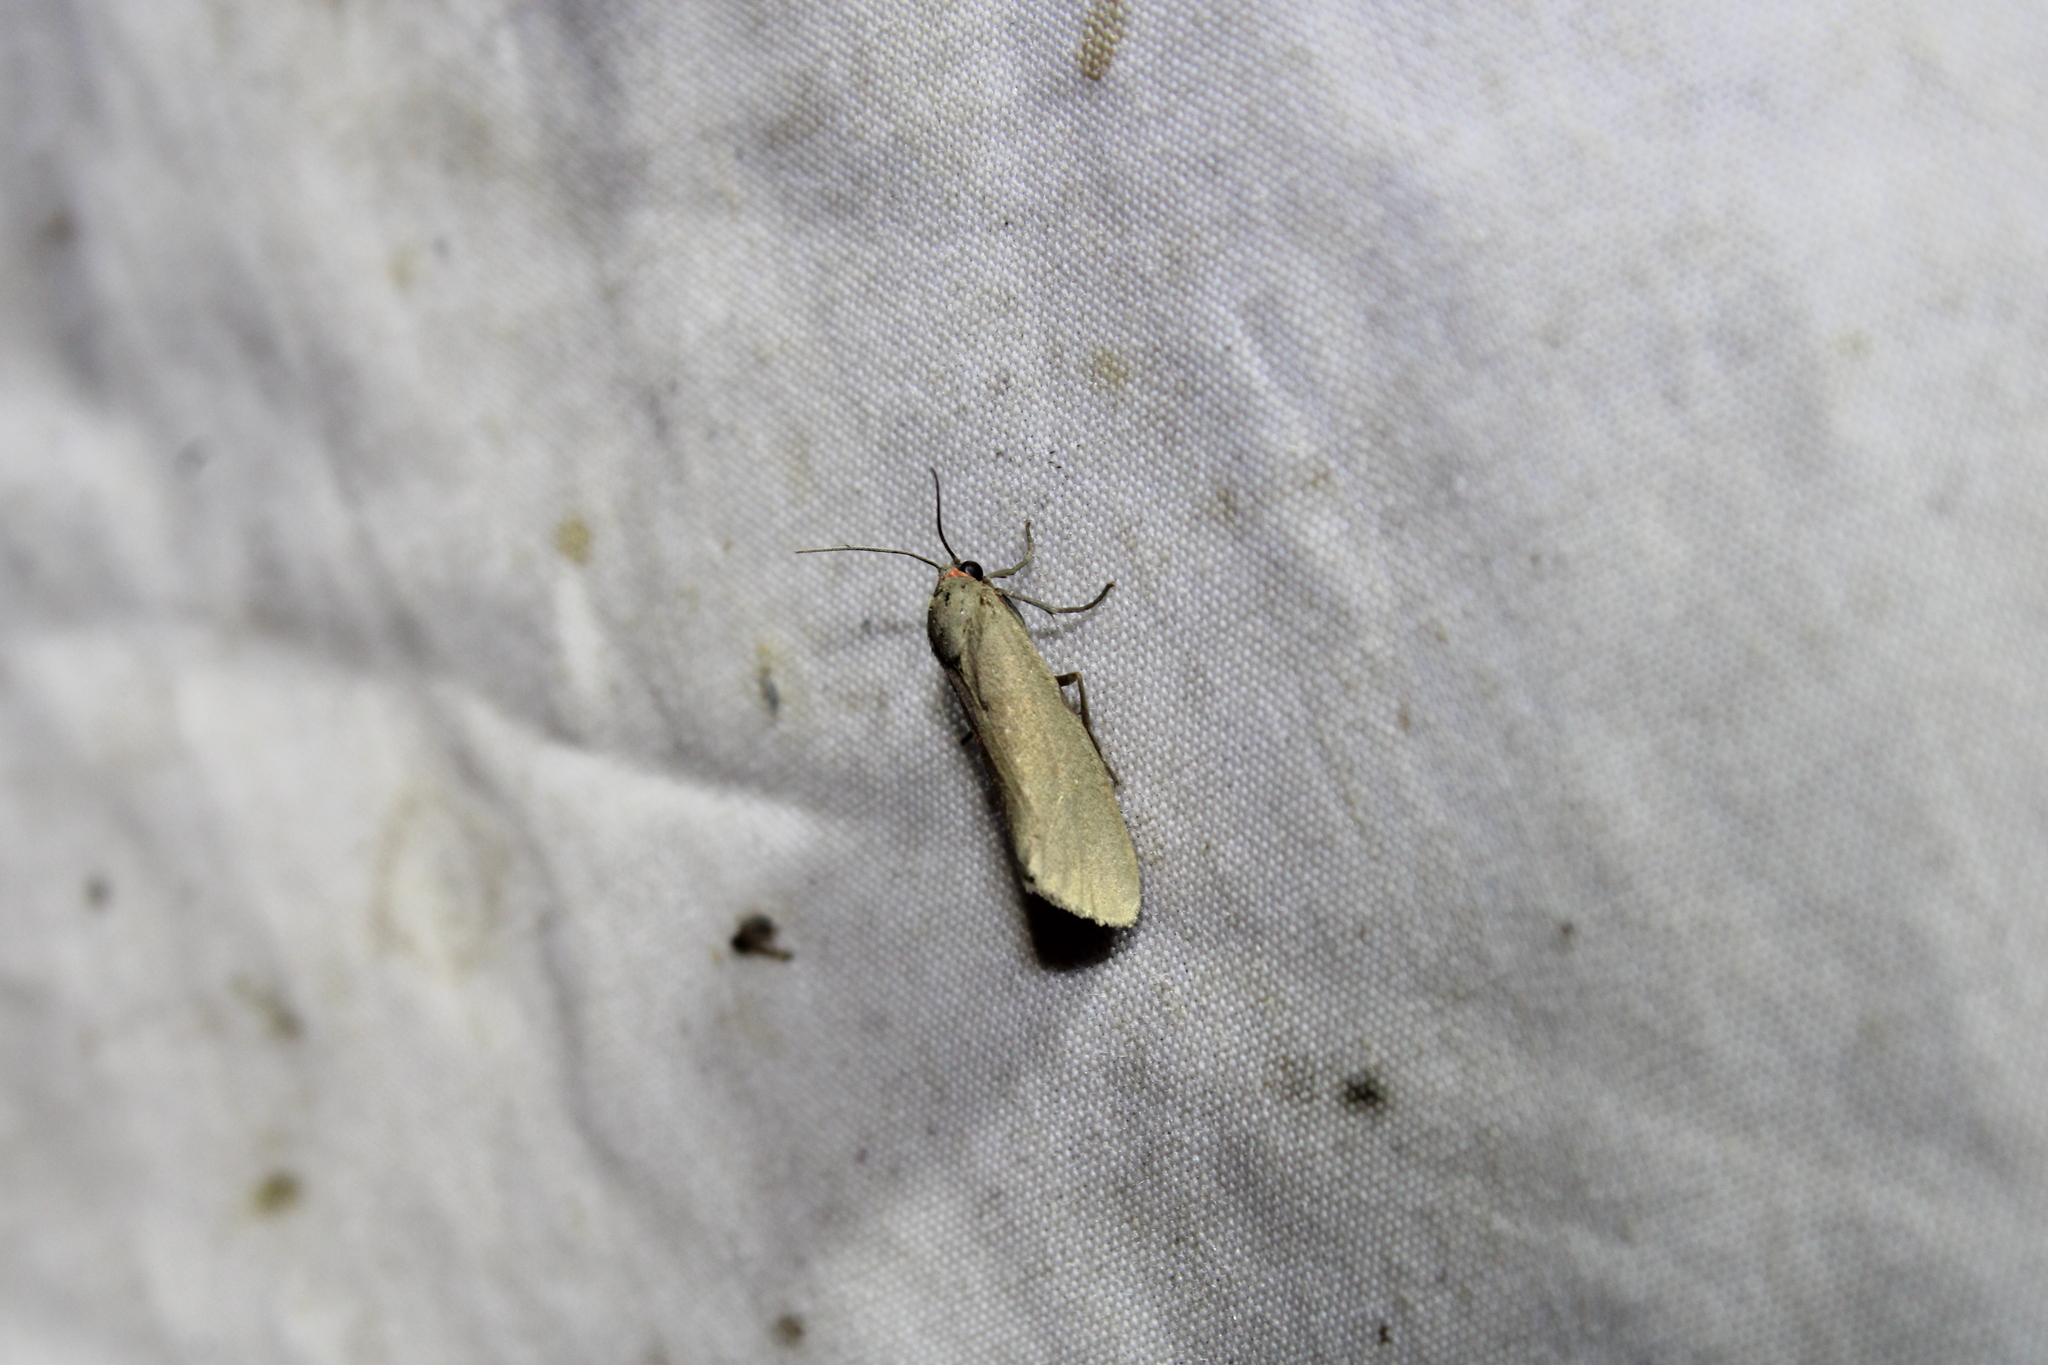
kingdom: Animalia
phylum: Arthropoda
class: Insecta
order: Lepidoptera
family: Erebidae
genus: Virbia
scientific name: Virbia laeta
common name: Joyful holomelina moth
